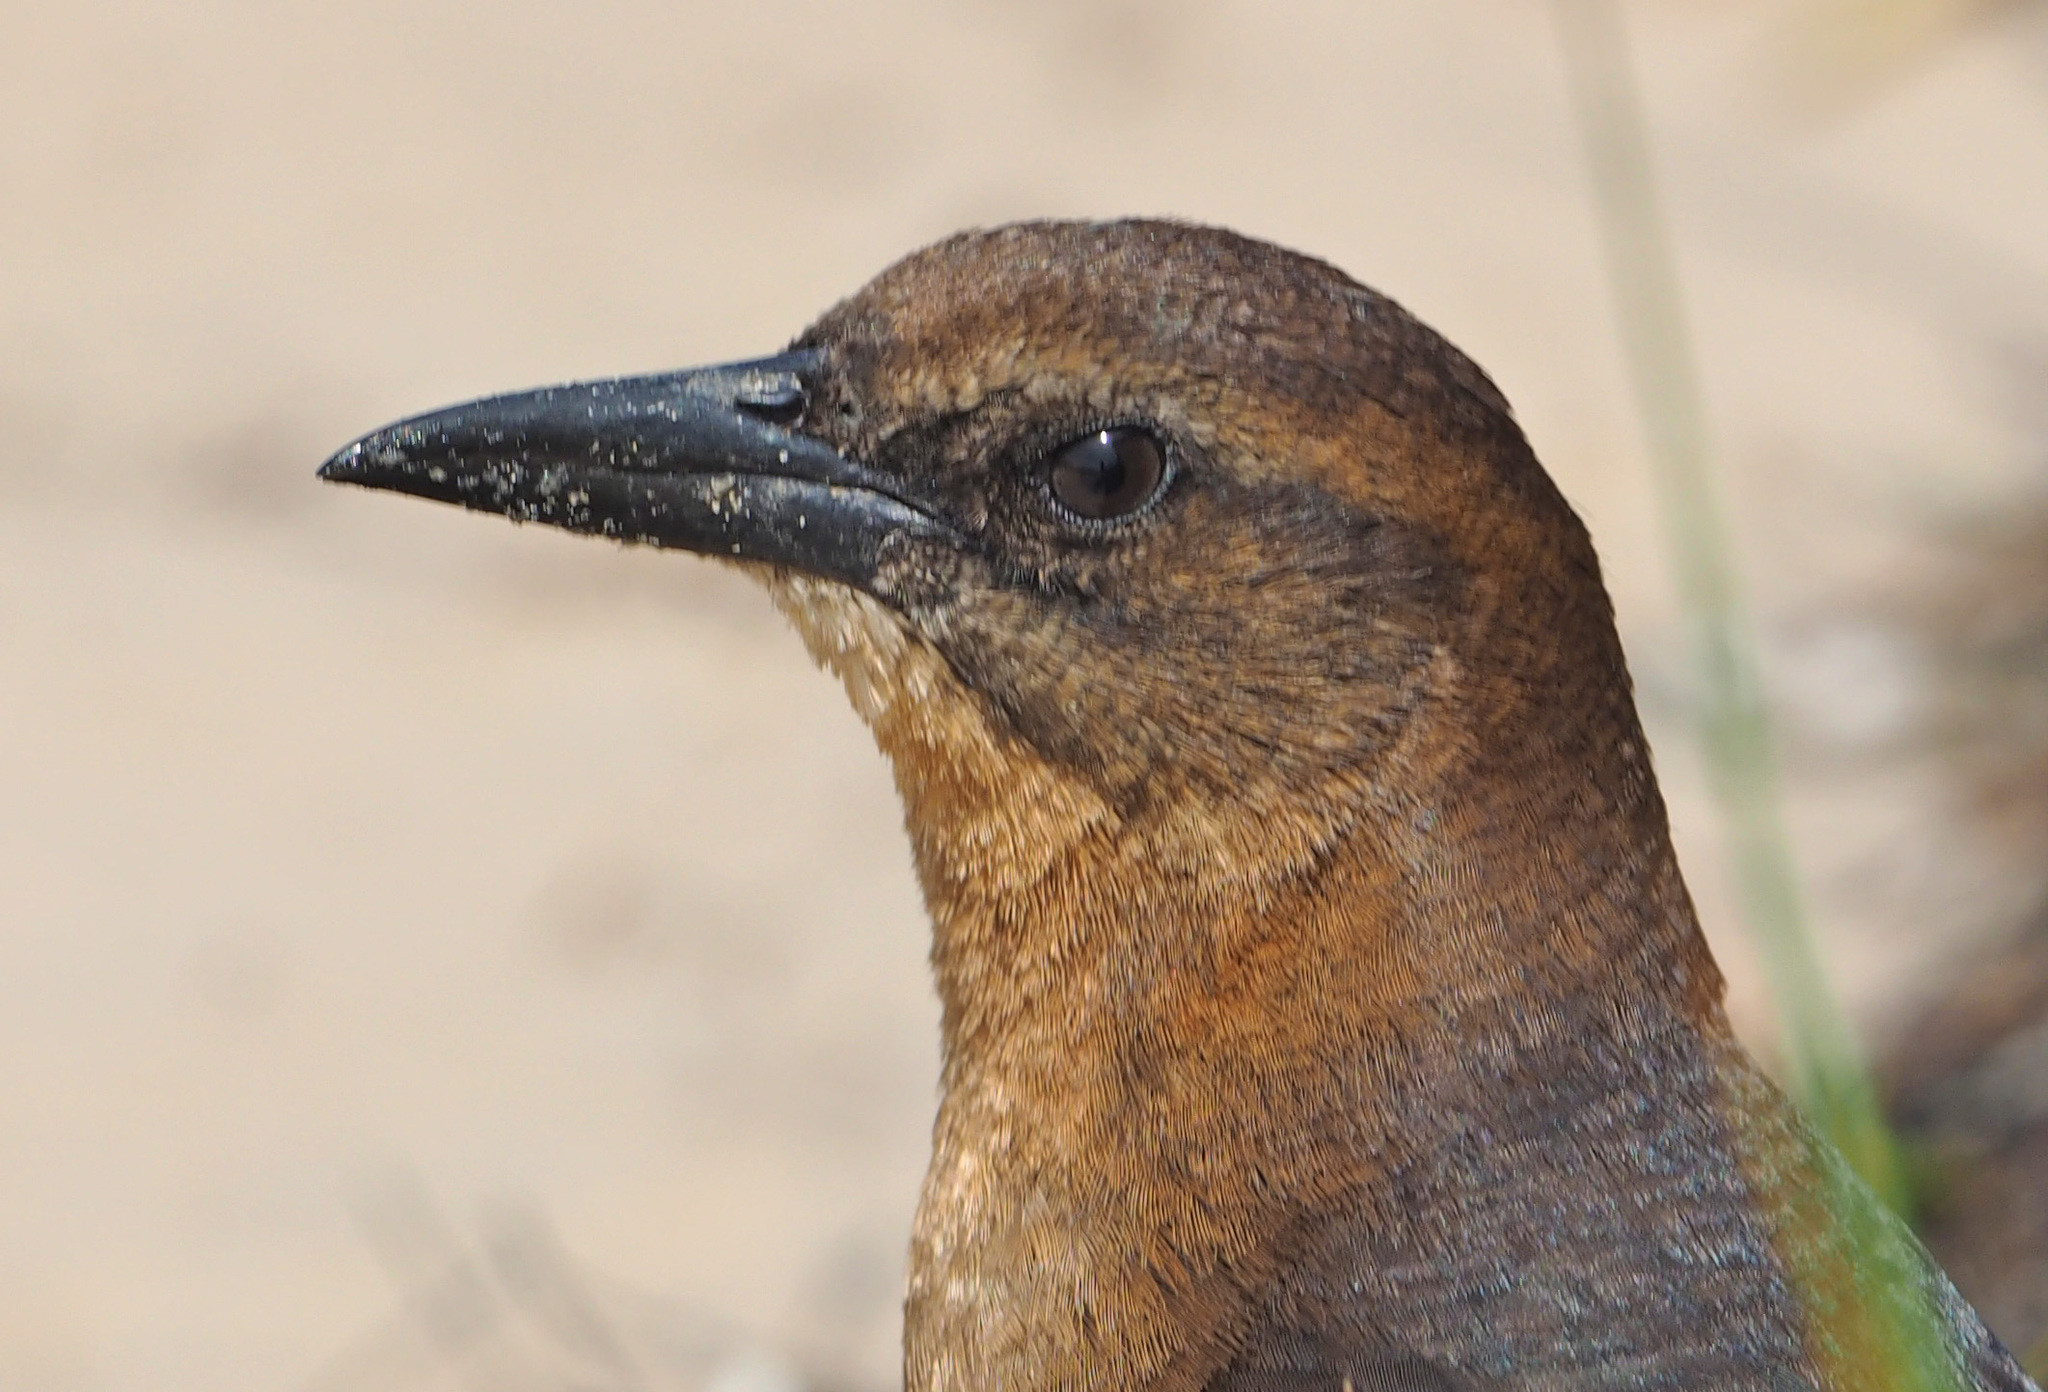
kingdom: Animalia
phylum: Chordata
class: Aves
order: Passeriformes
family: Icteridae
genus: Quiscalus
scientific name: Quiscalus major
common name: Boat-tailed grackle
